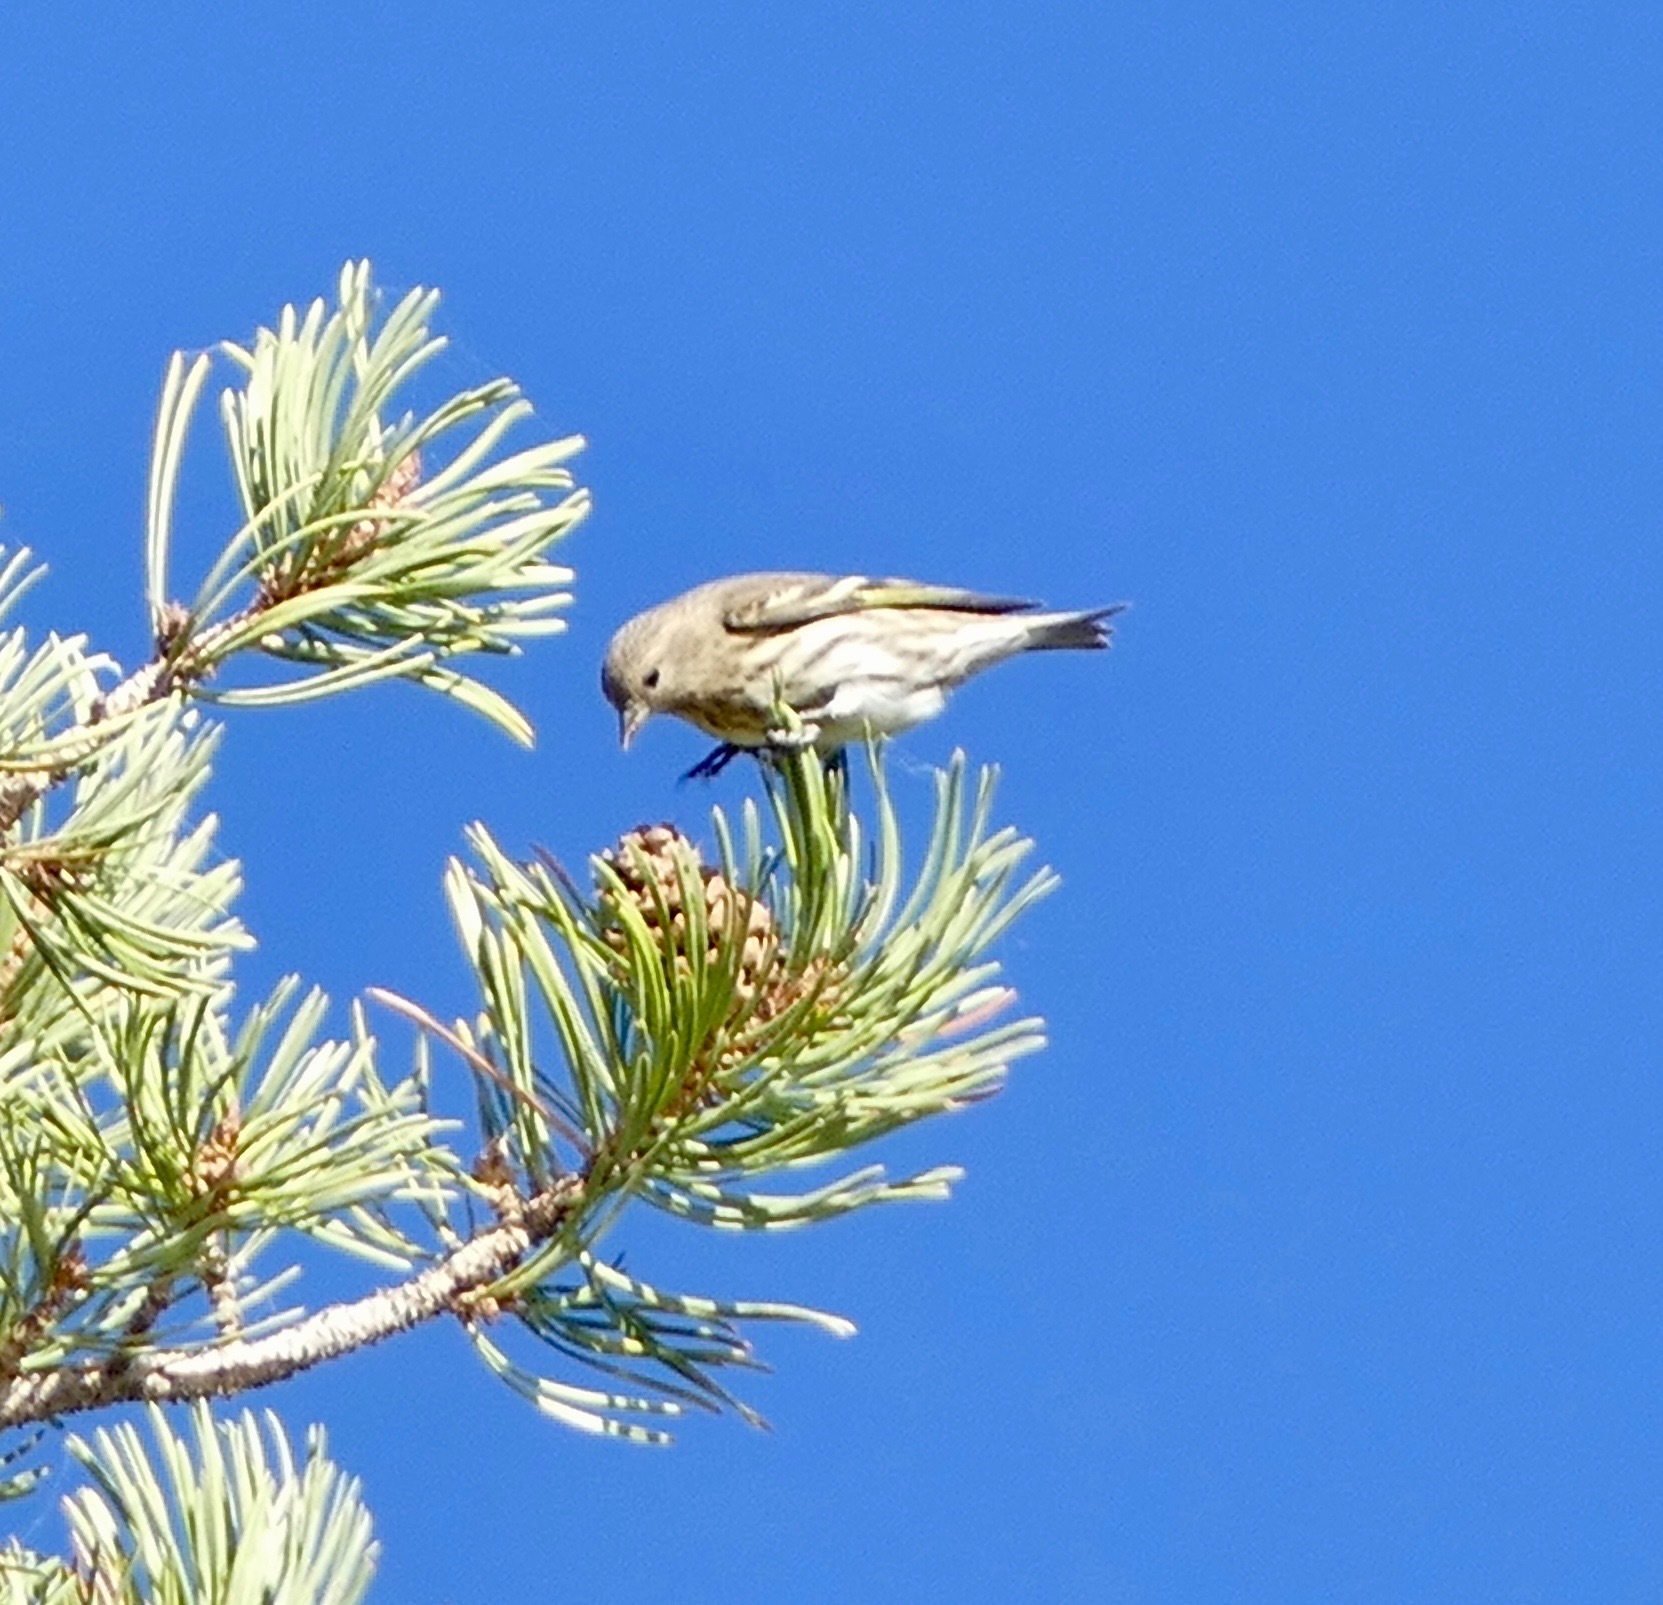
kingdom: Animalia
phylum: Chordata
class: Aves
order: Passeriformes
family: Fringillidae
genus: Spinus
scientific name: Spinus pinus
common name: Pine siskin
